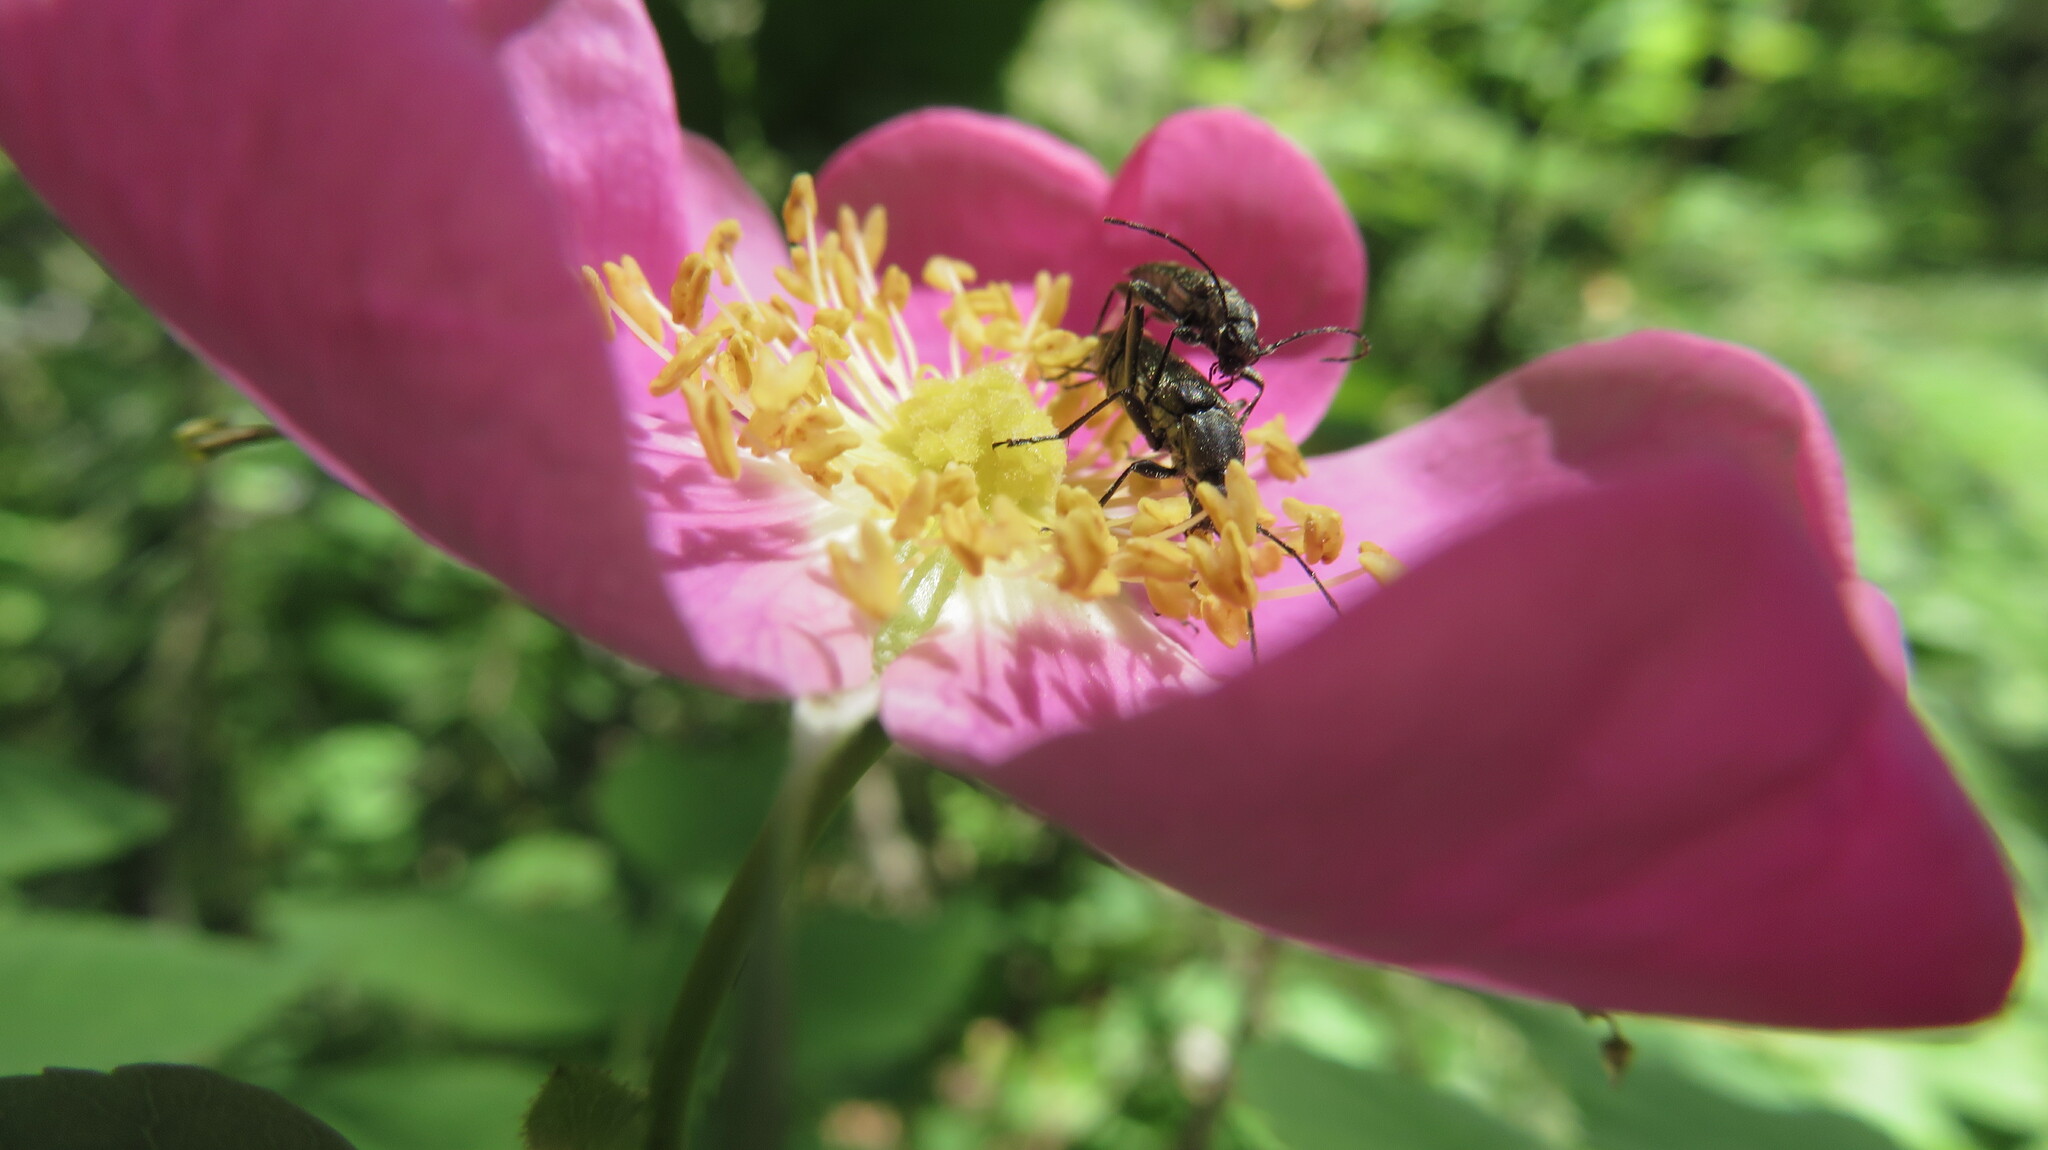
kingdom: Animalia
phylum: Arthropoda
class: Insecta
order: Coleoptera
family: Cerambycidae
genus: Grammoptera
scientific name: Grammoptera subargentata
